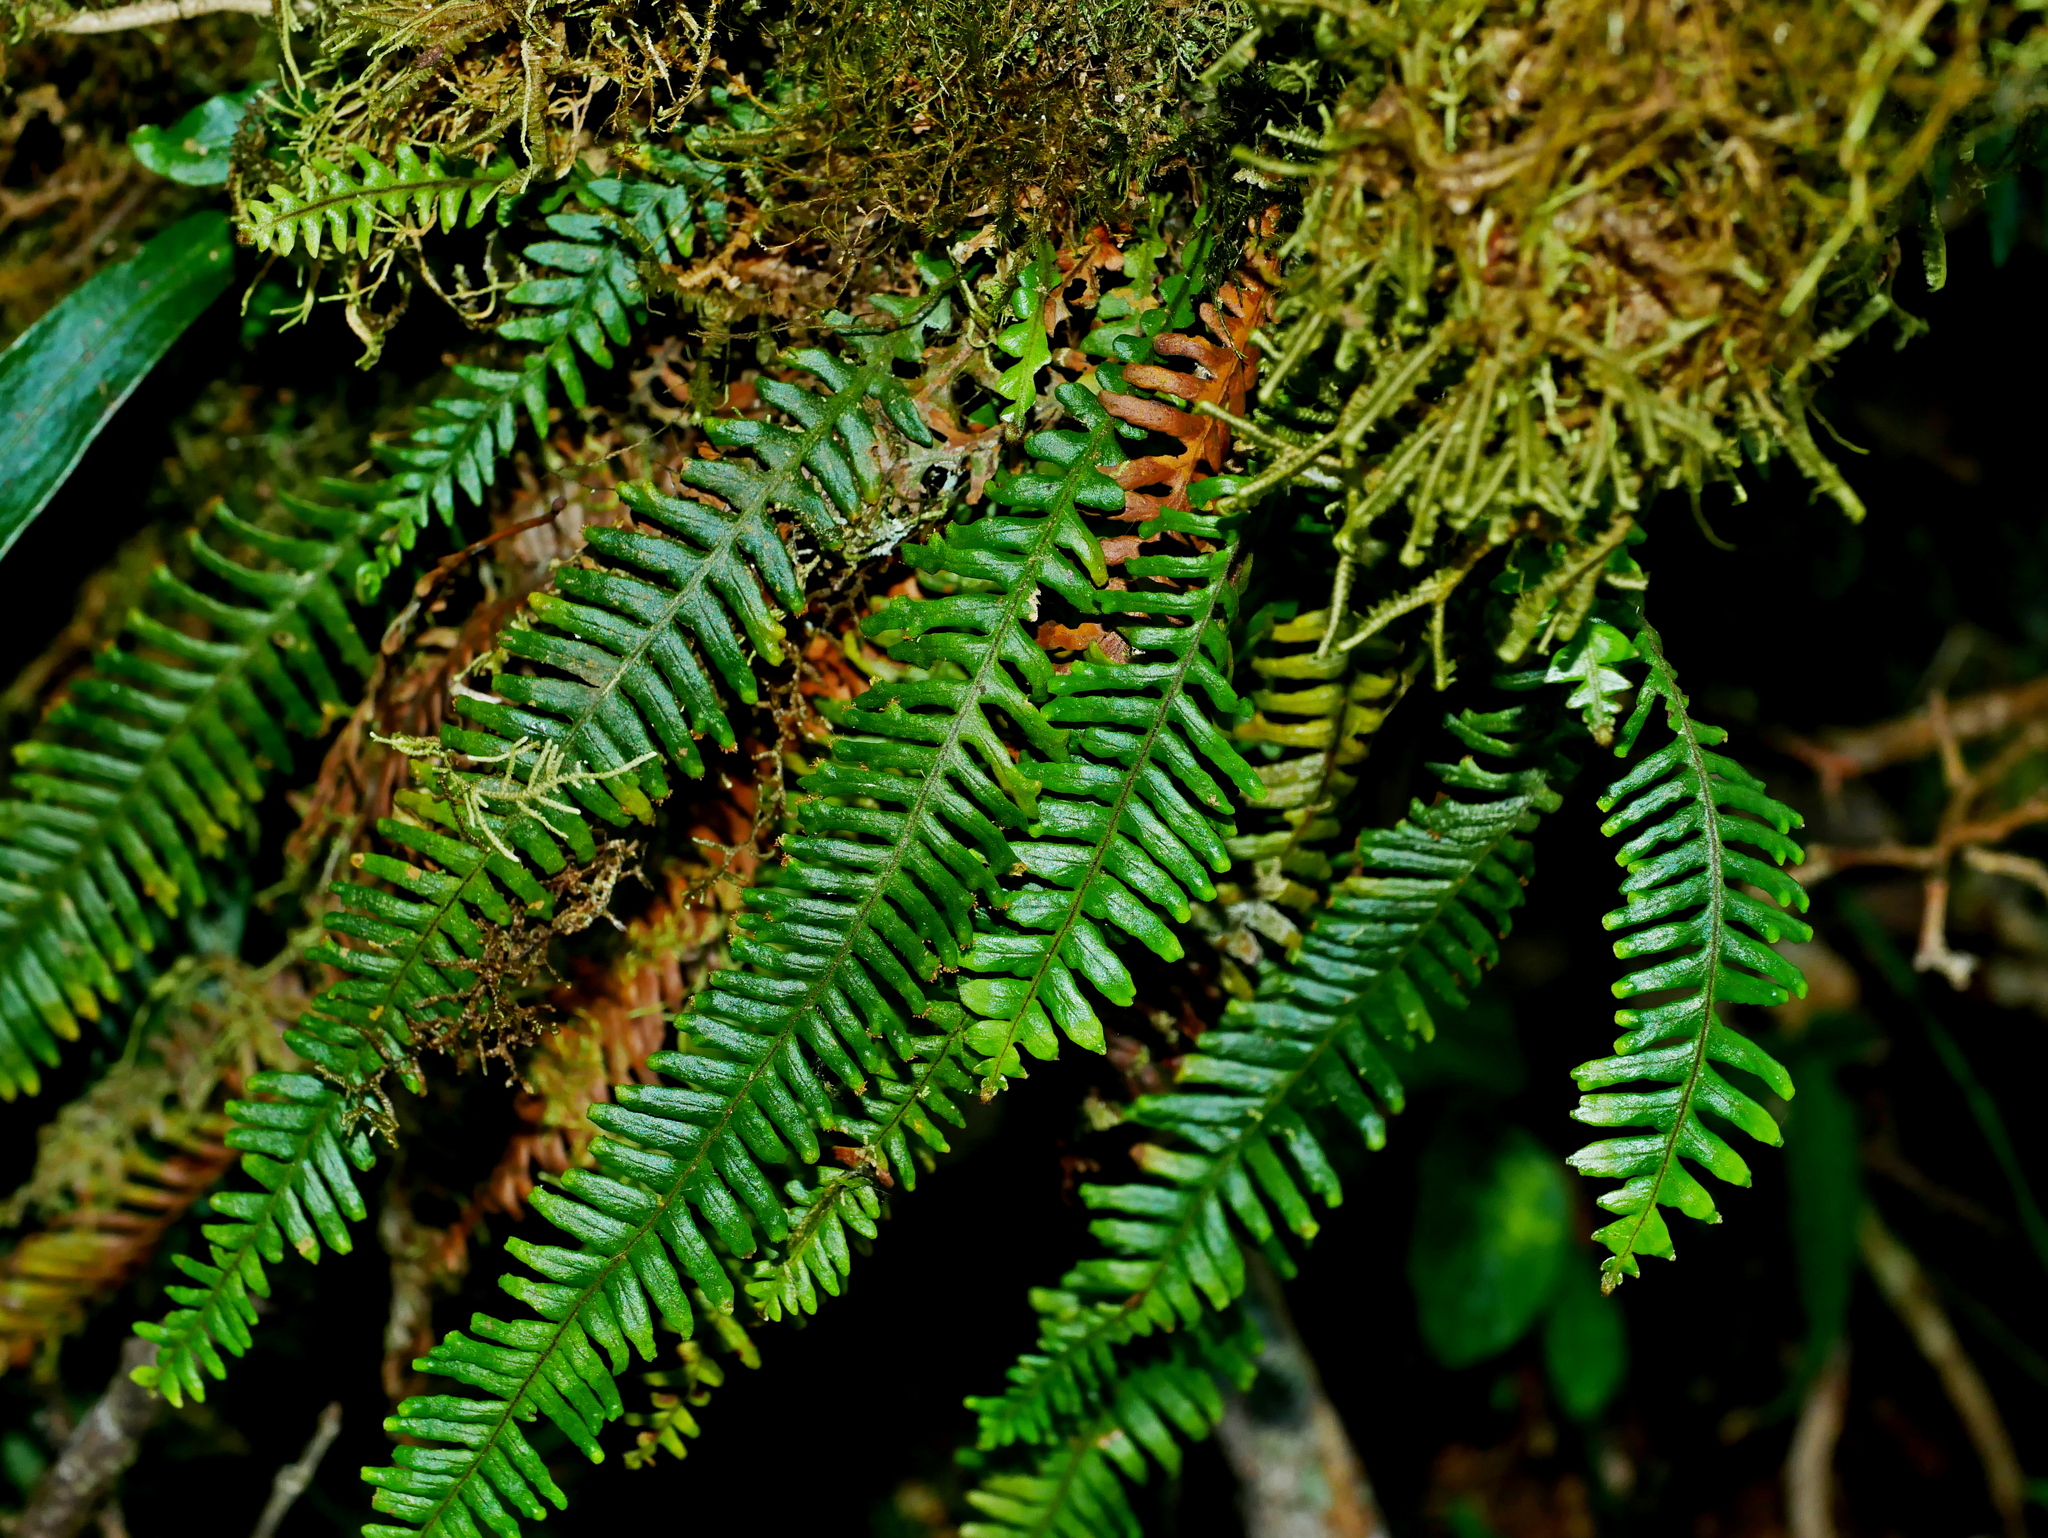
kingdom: Plantae
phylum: Tracheophyta
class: Polypodiopsida
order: Polypodiales
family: Polypodiaceae
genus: Prosaptia
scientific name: Prosaptia formosana
